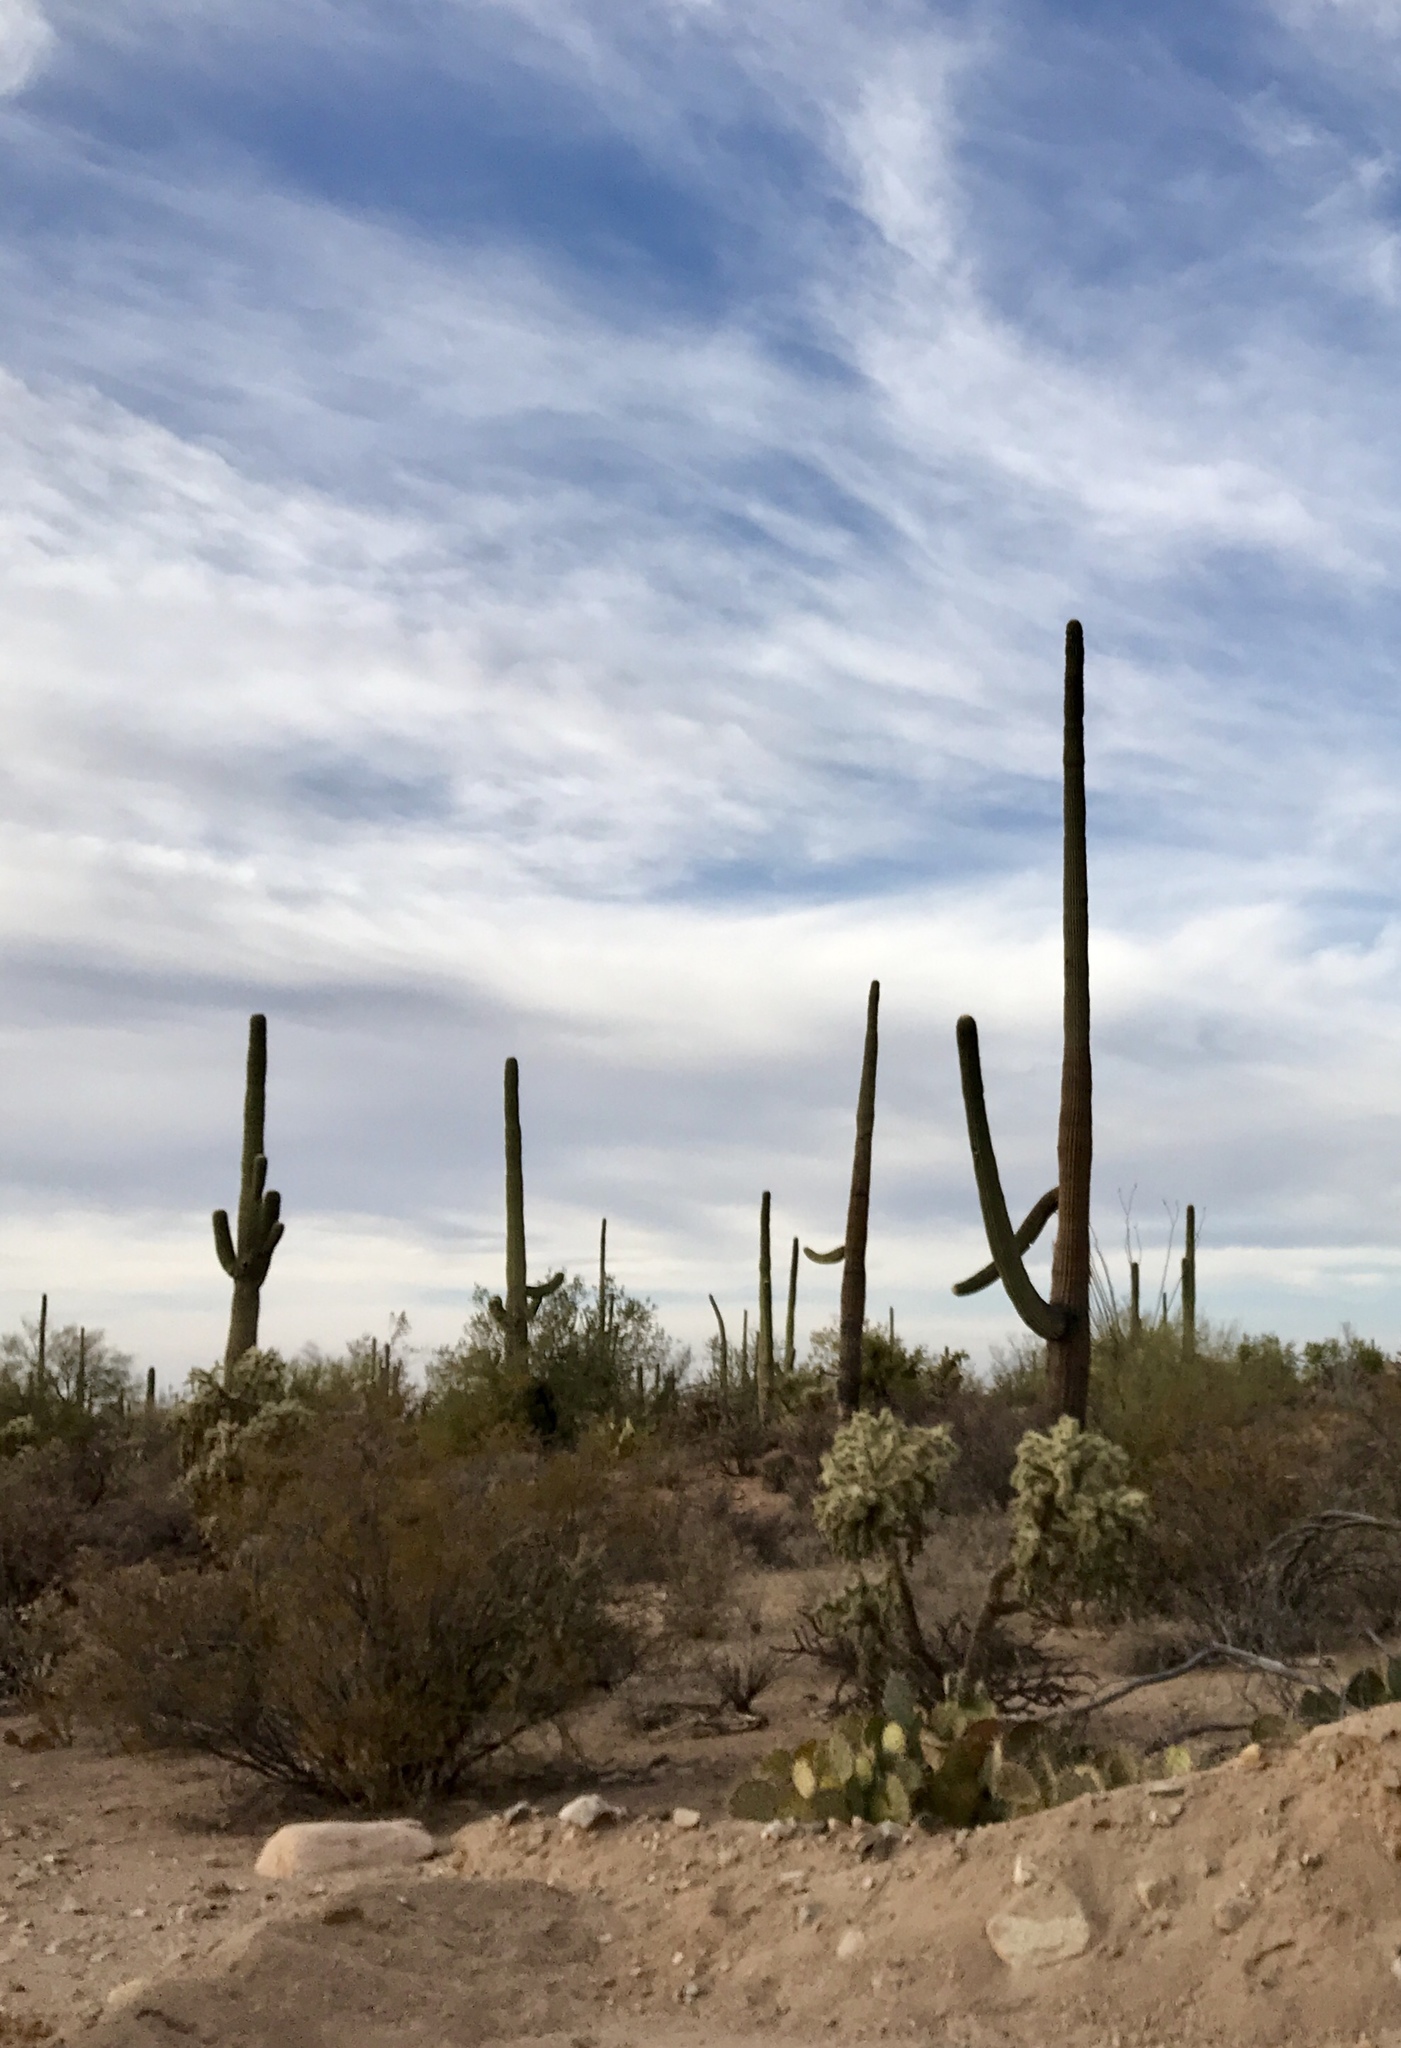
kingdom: Plantae
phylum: Tracheophyta
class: Magnoliopsida
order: Caryophyllales
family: Cactaceae
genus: Carnegiea
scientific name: Carnegiea gigantea
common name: Saguaro
